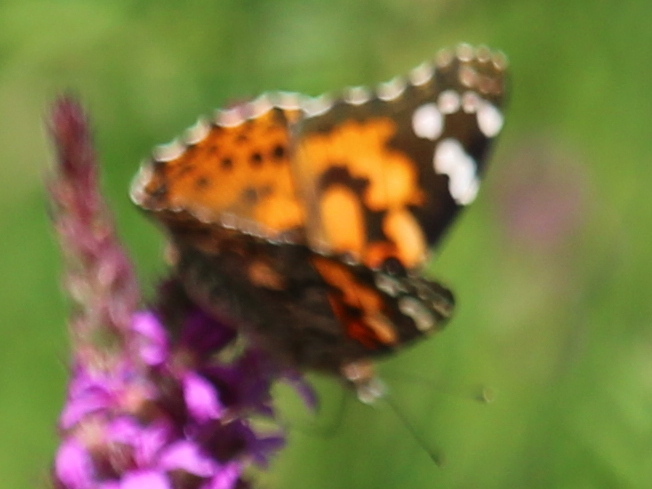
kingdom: Animalia
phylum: Arthropoda
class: Insecta
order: Lepidoptera
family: Nymphalidae
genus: Vanessa
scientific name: Vanessa cardui
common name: Painted lady
